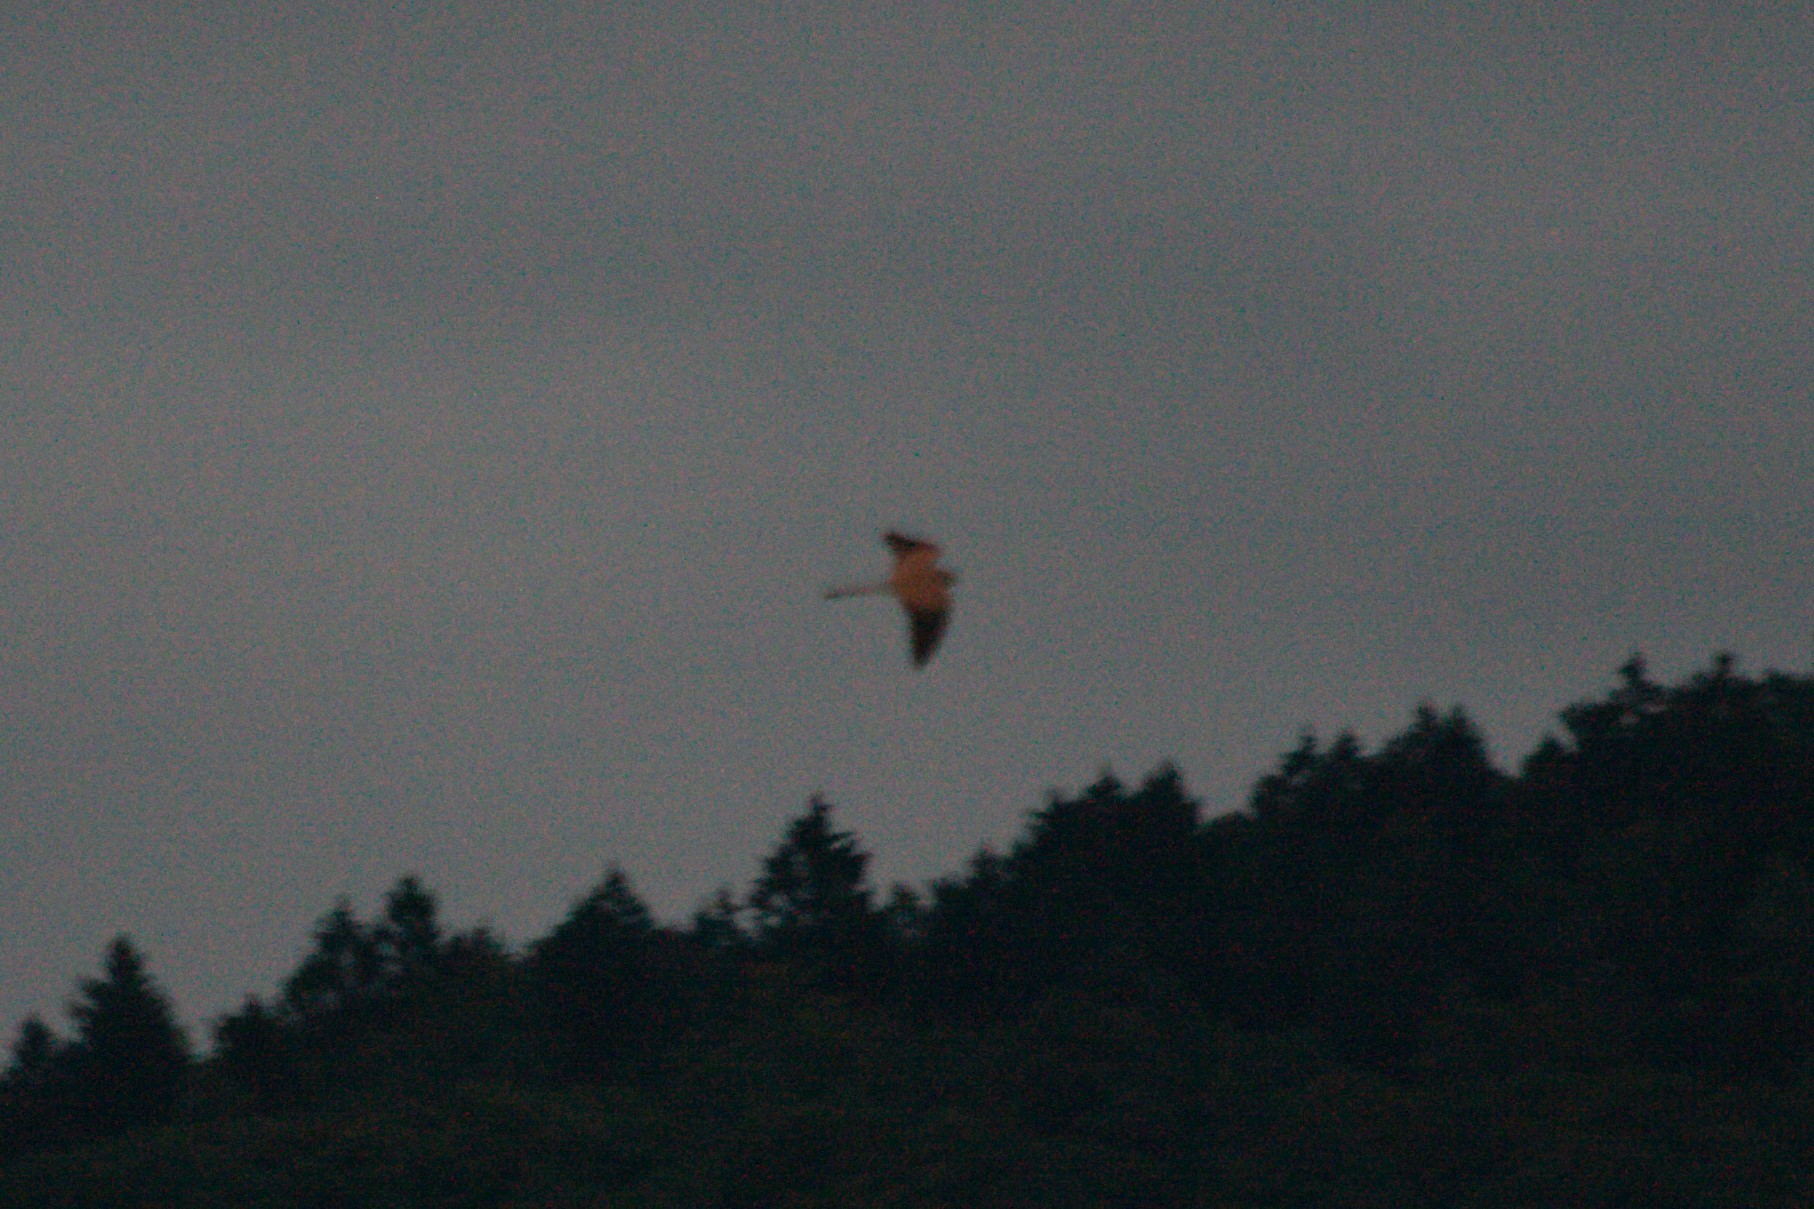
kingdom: Animalia
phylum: Chordata
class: Aves
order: Falconiformes
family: Falconidae
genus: Falco
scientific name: Falco tinnunculus
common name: Common kestrel
